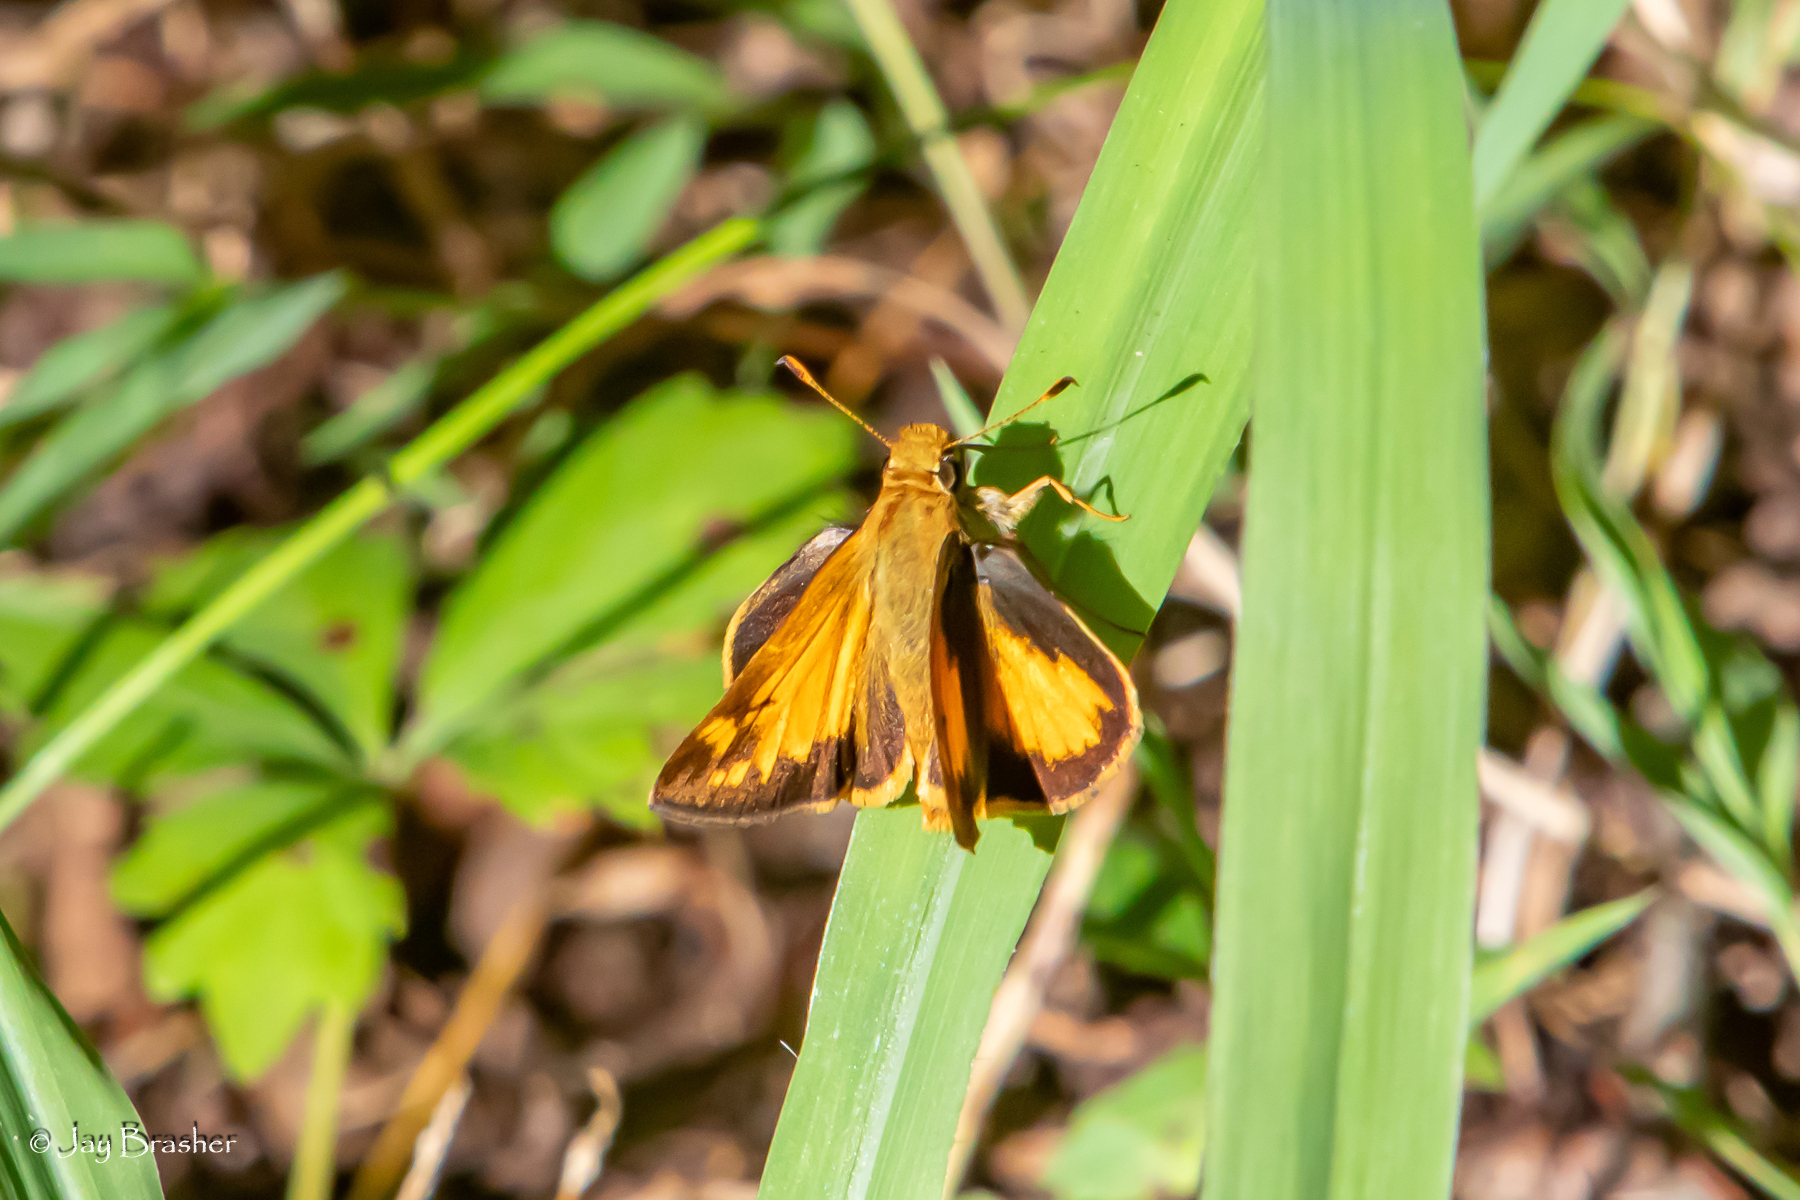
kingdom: Animalia
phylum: Arthropoda
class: Insecta
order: Lepidoptera
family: Hesperiidae
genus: Lon
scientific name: Lon zabulon
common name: Zabulon skipper
